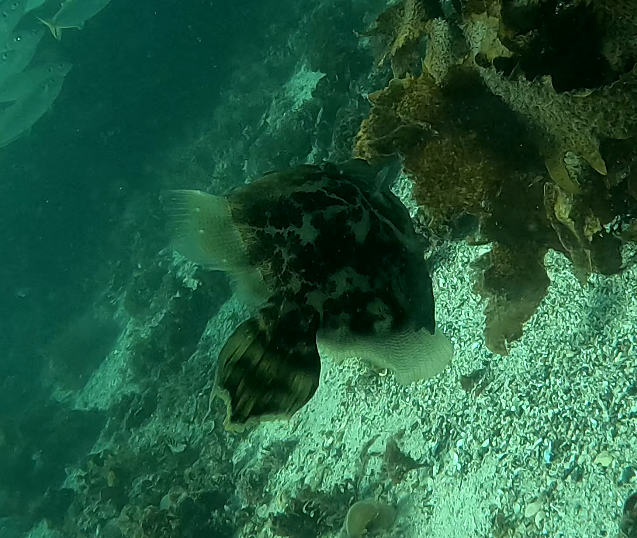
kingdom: Animalia
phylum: Chordata
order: Tetraodontiformes
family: Monacanthidae
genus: Monacanthus
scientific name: Monacanthus chinensis
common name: Centreboard leatherjacket
